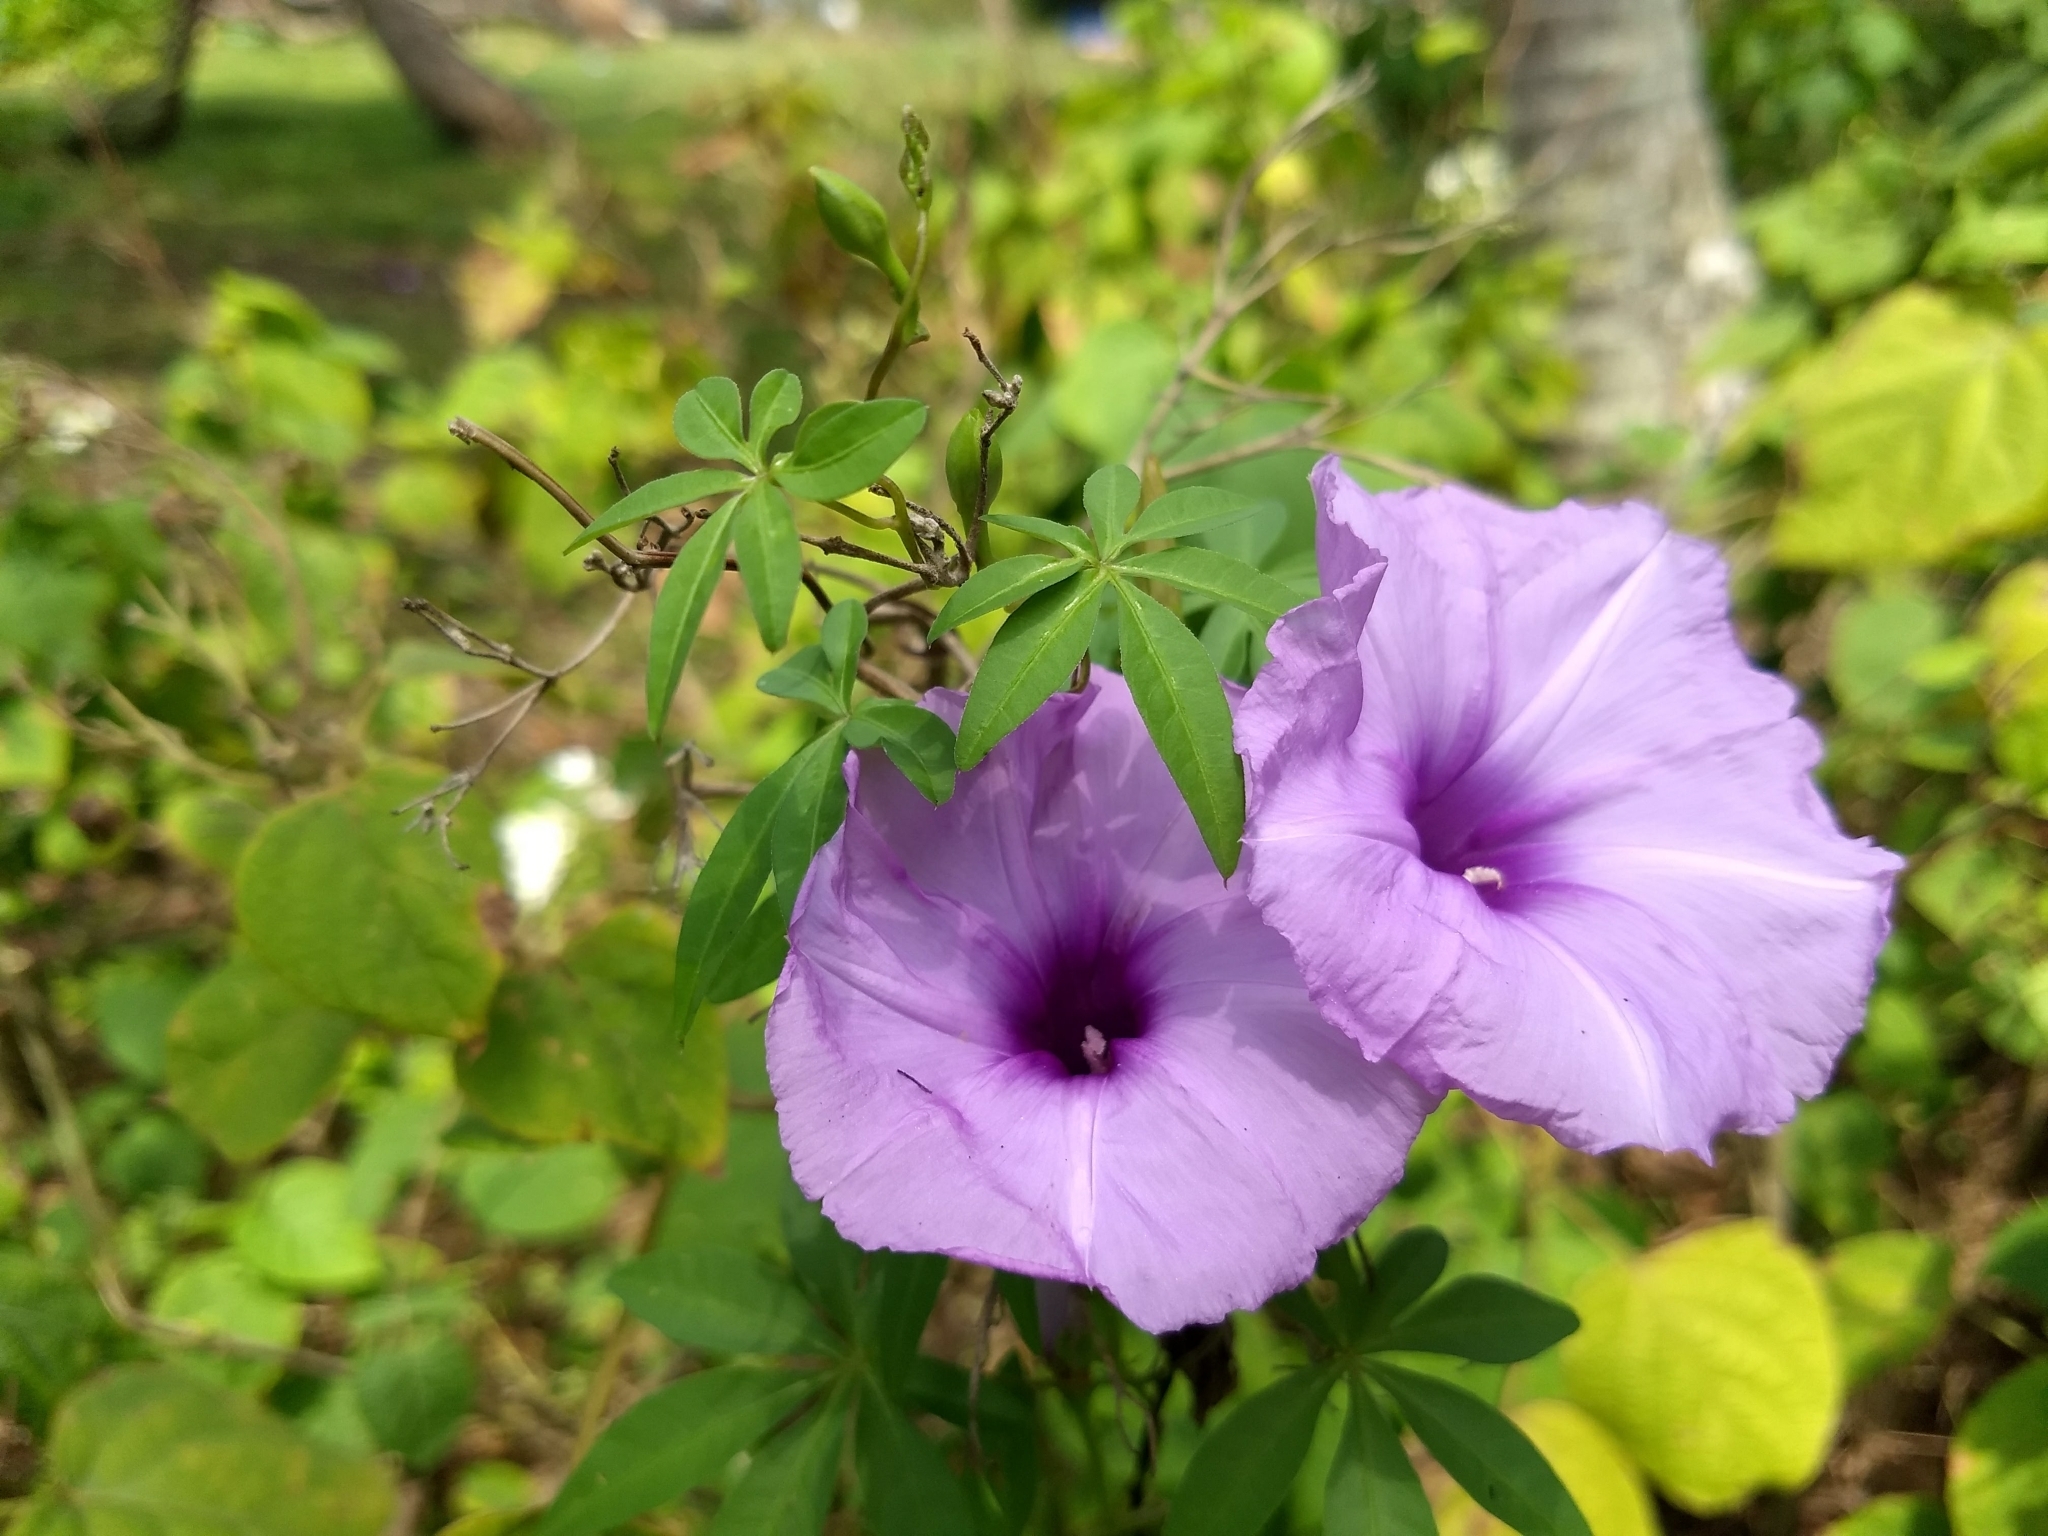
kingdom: Plantae
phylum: Tracheophyta
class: Magnoliopsida
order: Solanales
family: Convolvulaceae
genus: Ipomoea
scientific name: Ipomoea cairica
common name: Mile a minute vine
